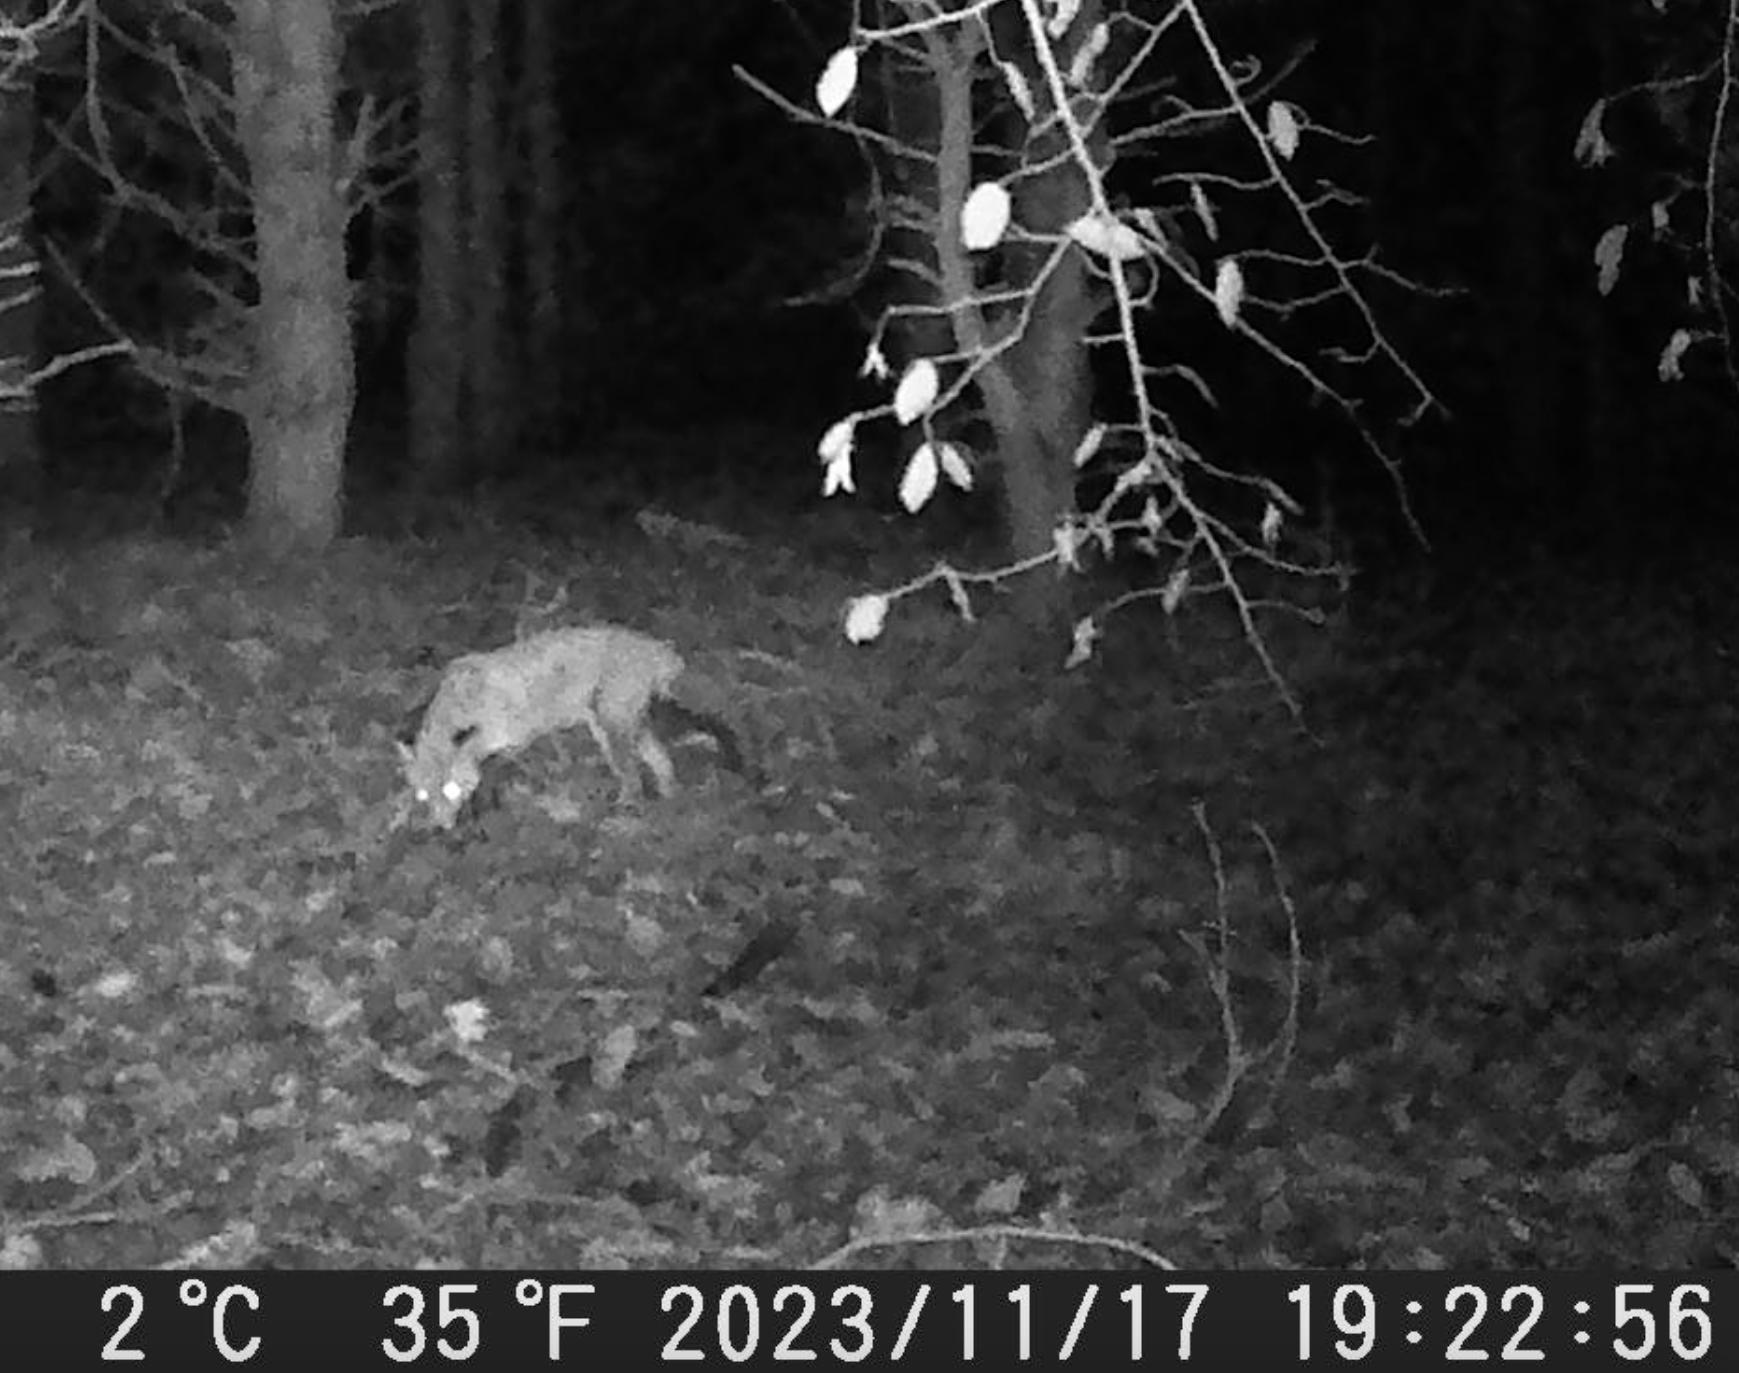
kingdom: Animalia
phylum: Chordata
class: Mammalia
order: Carnivora
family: Canidae
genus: Vulpes
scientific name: Vulpes vulpes
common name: Red fox
